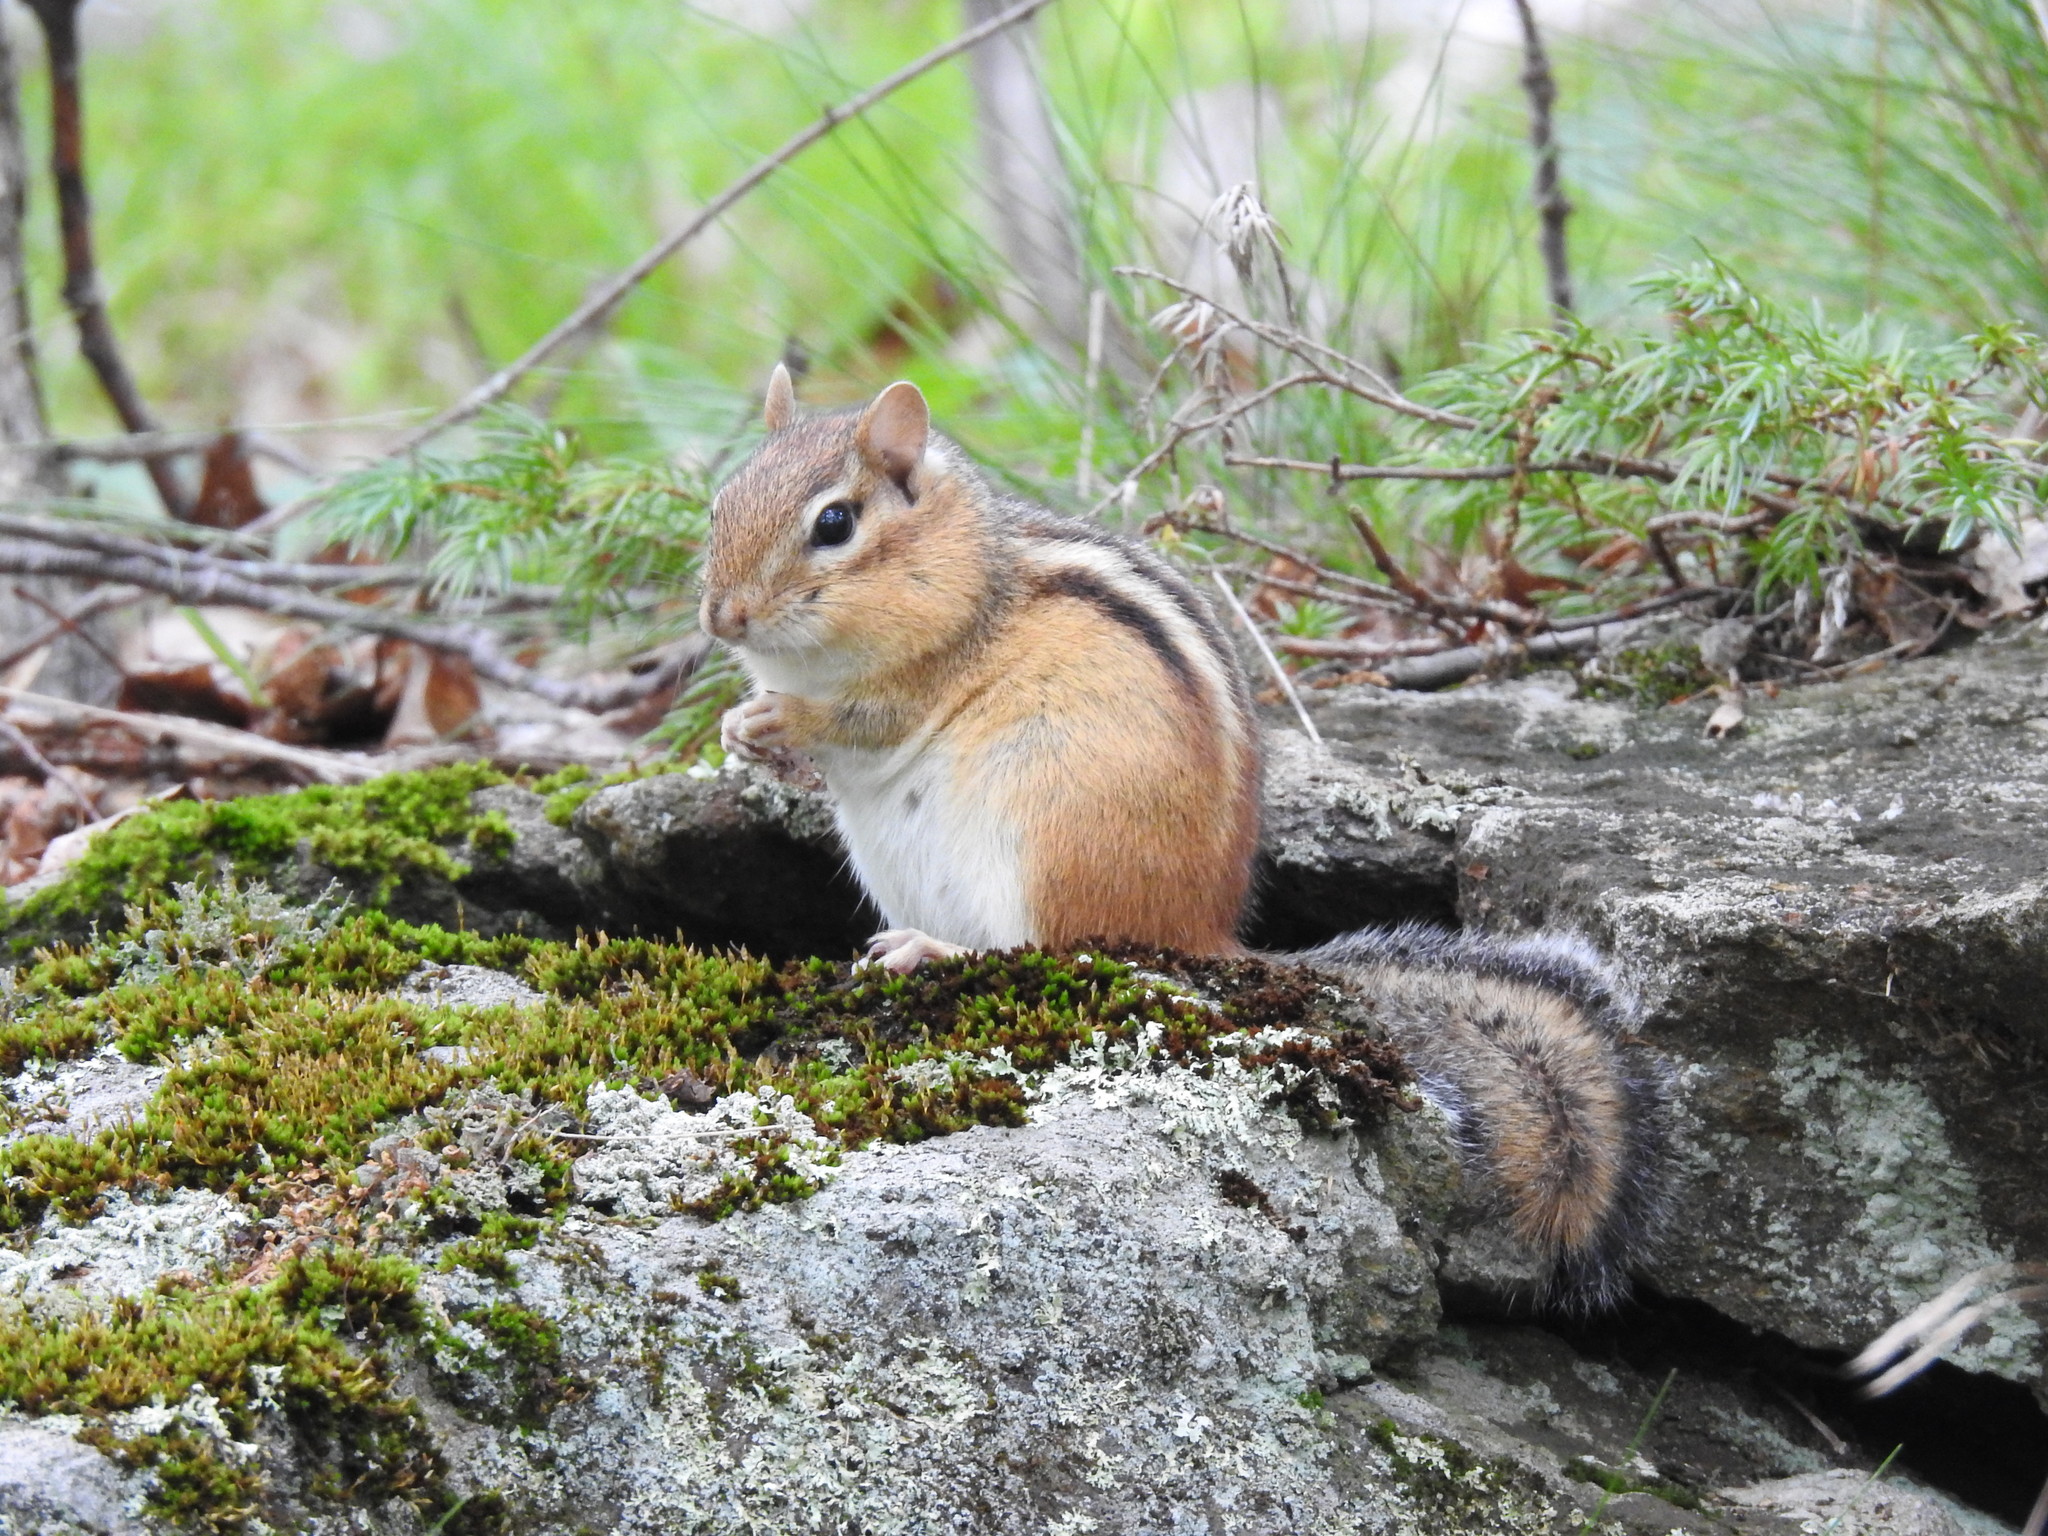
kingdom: Animalia
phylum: Chordata
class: Mammalia
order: Rodentia
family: Sciuridae
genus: Tamias
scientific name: Tamias striatus
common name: Eastern chipmunk
